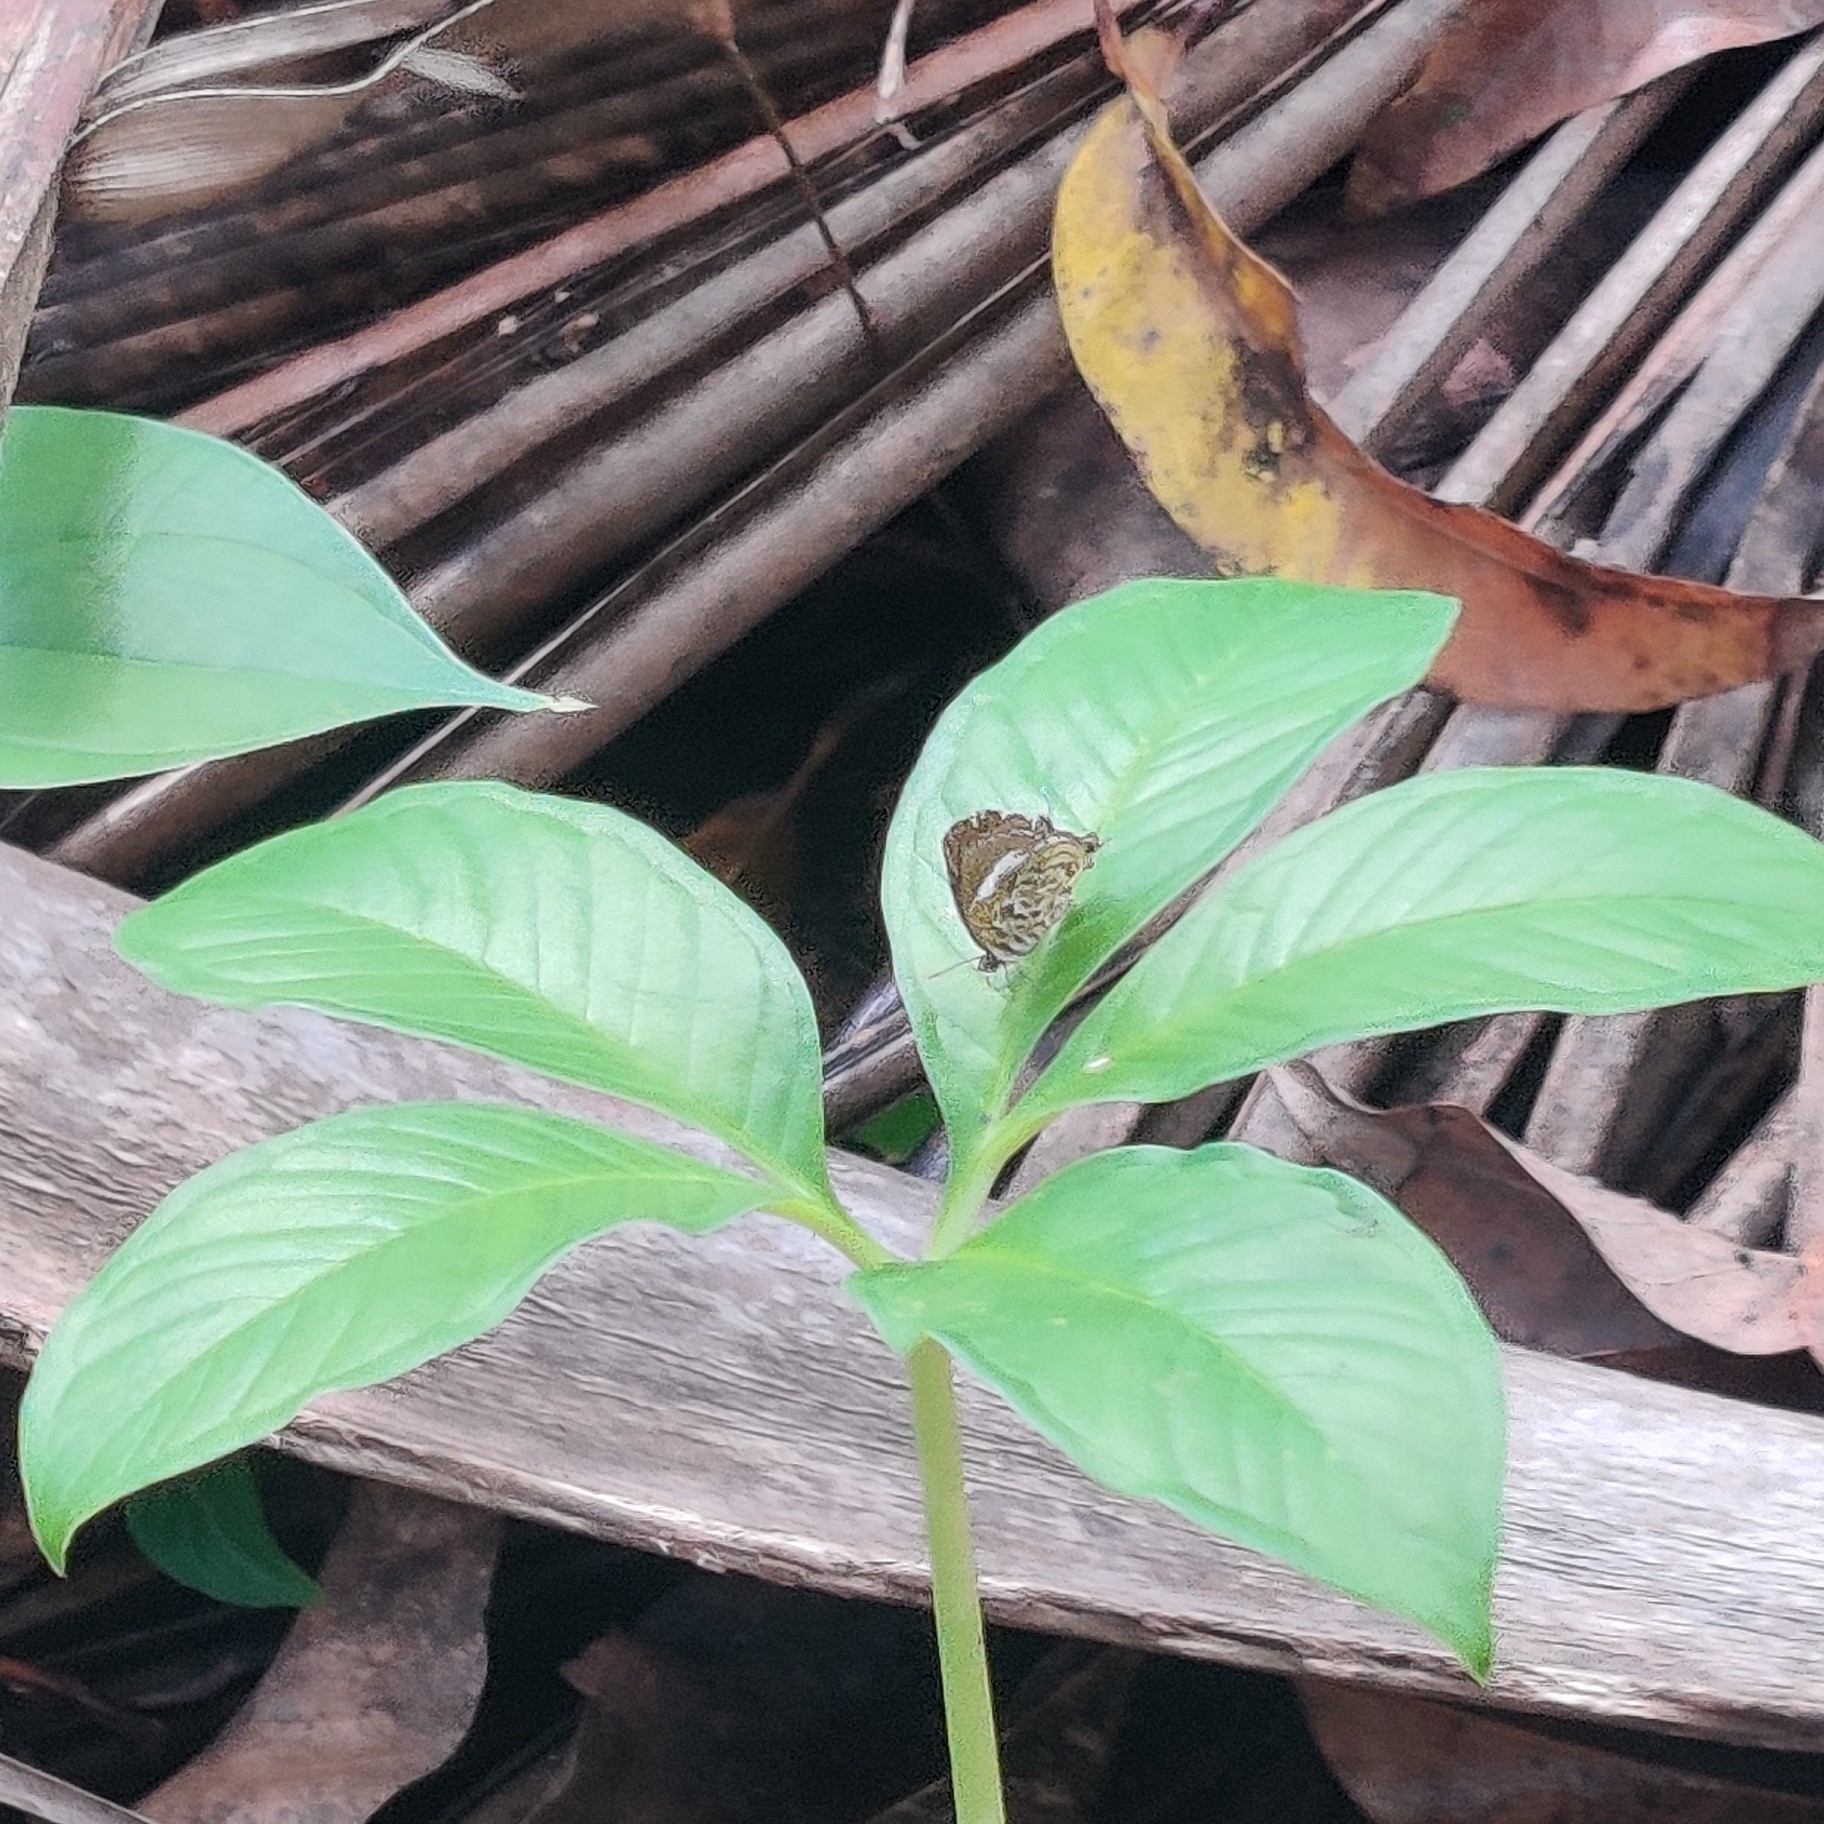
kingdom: Animalia
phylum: Arthropoda
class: Insecta
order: Lepidoptera
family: Lycaenidae
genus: Rathinda
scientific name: Rathinda amor
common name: Monkey puzzle
